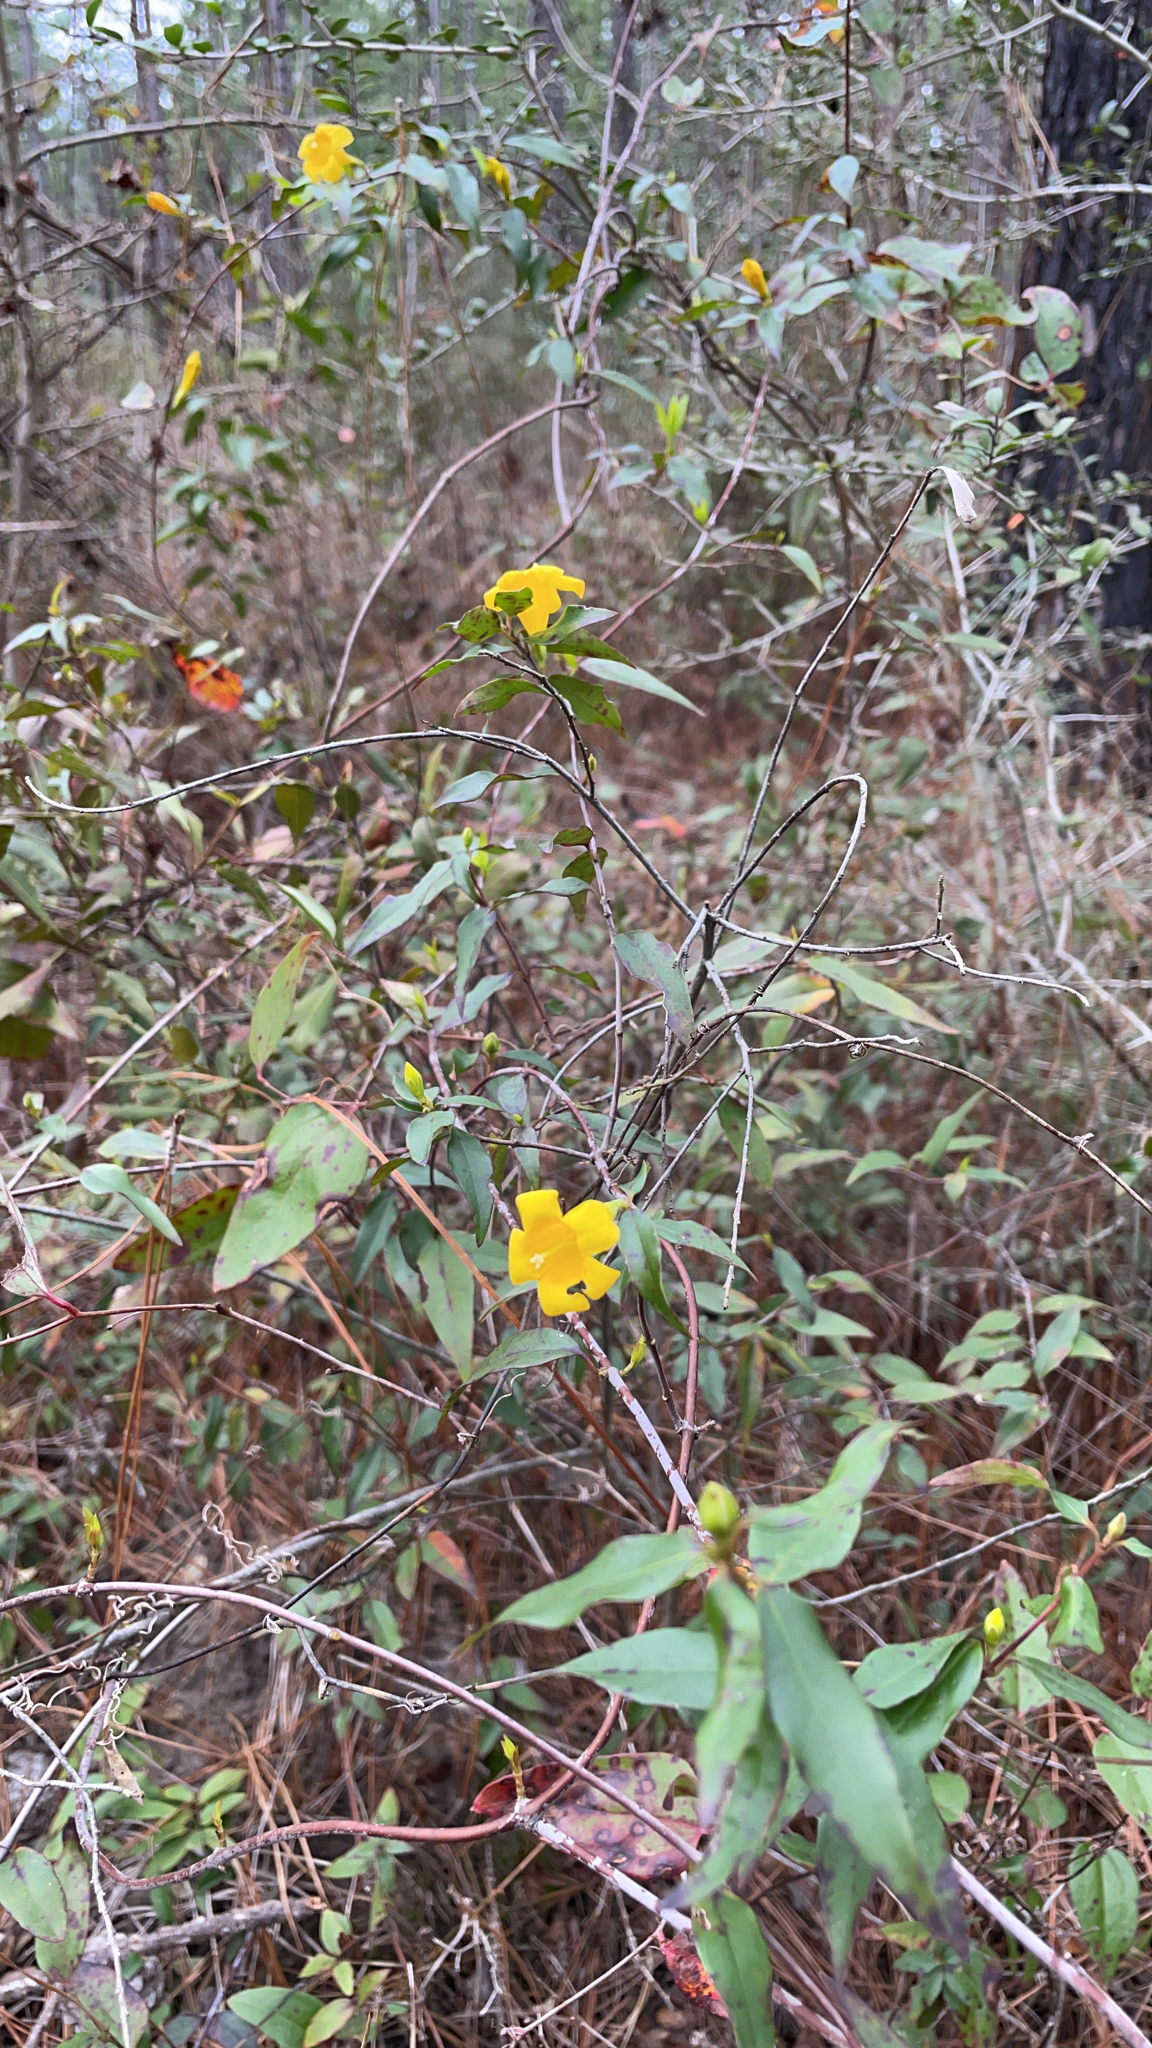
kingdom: Plantae
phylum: Tracheophyta
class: Magnoliopsida
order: Gentianales
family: Gelsemiaceae
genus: Gelsemium
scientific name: Gelsemium sempervirens
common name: Carolina-jasmine
